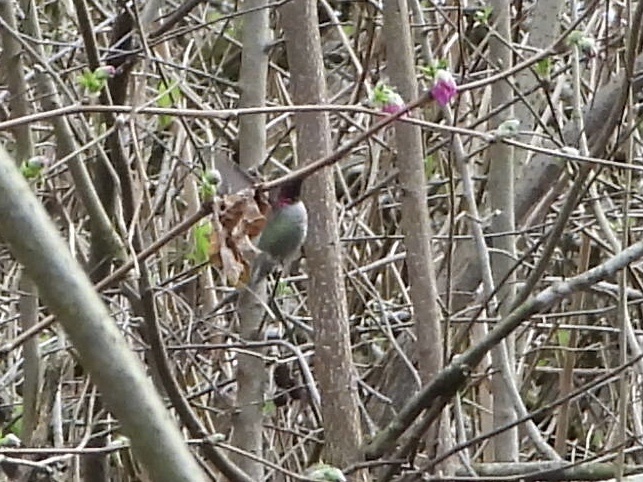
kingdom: Animalia
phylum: Chordata
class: Aves
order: Apodiformes
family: Trochilidae
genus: Calypte
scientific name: Calypte anna
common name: Anna's hummingbird
